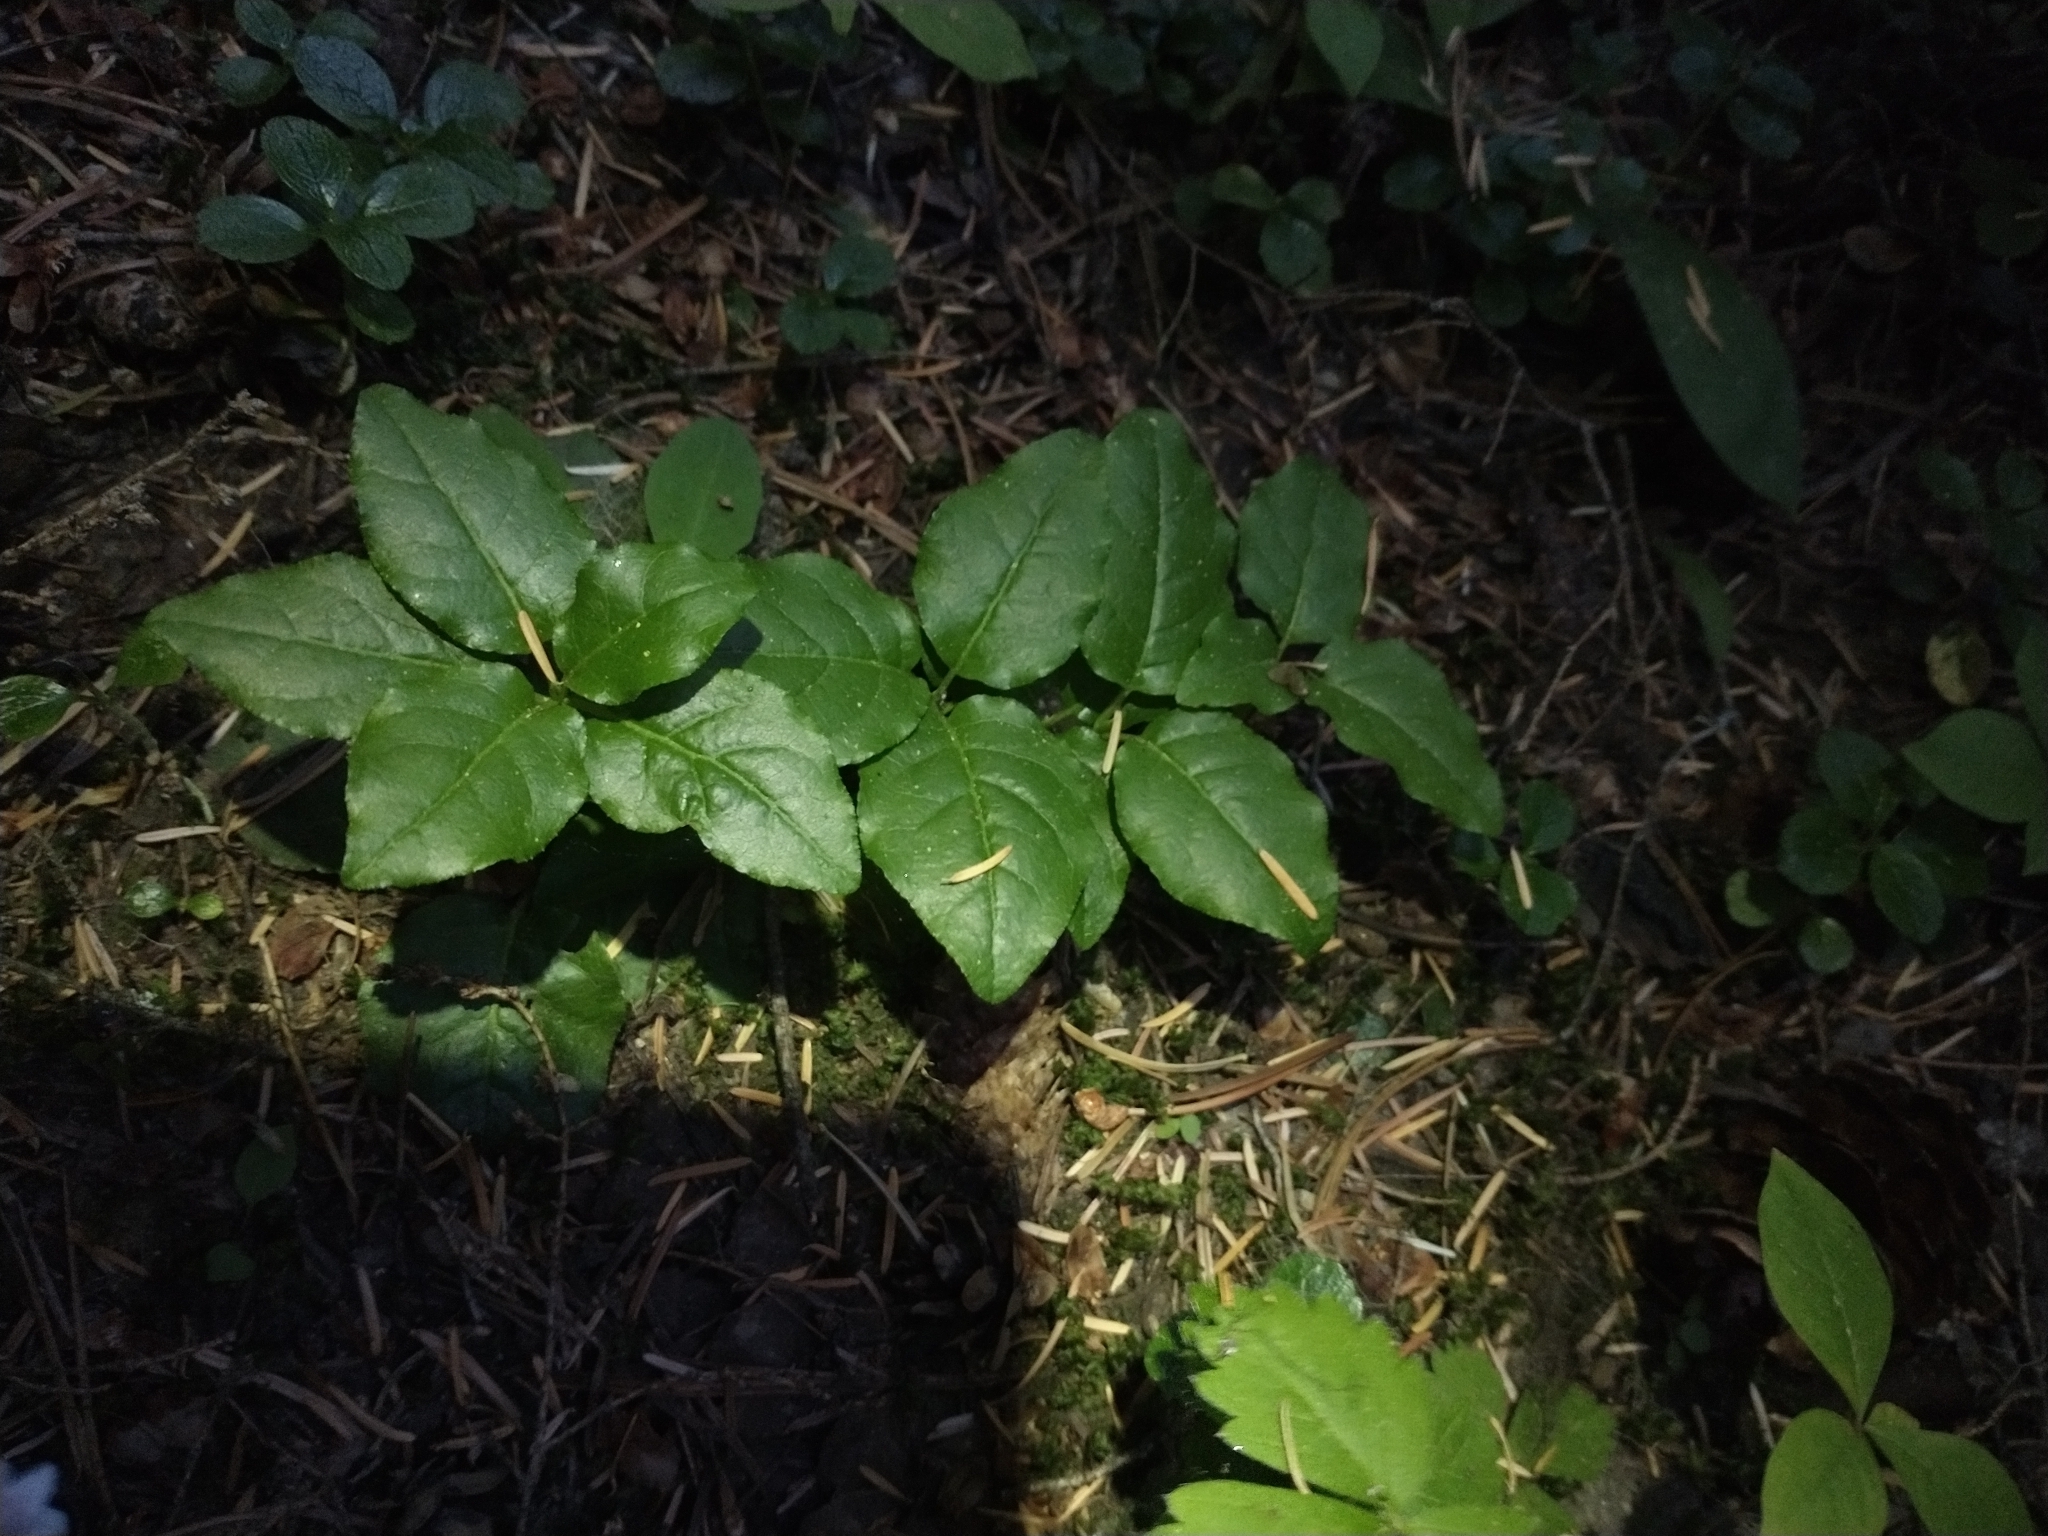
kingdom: Plantae
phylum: Tracheophyta
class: Magnoliopsida
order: Ericales
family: Ericaceae
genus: Orthilia
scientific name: Orthilia secunda
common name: One-sided orthilia
